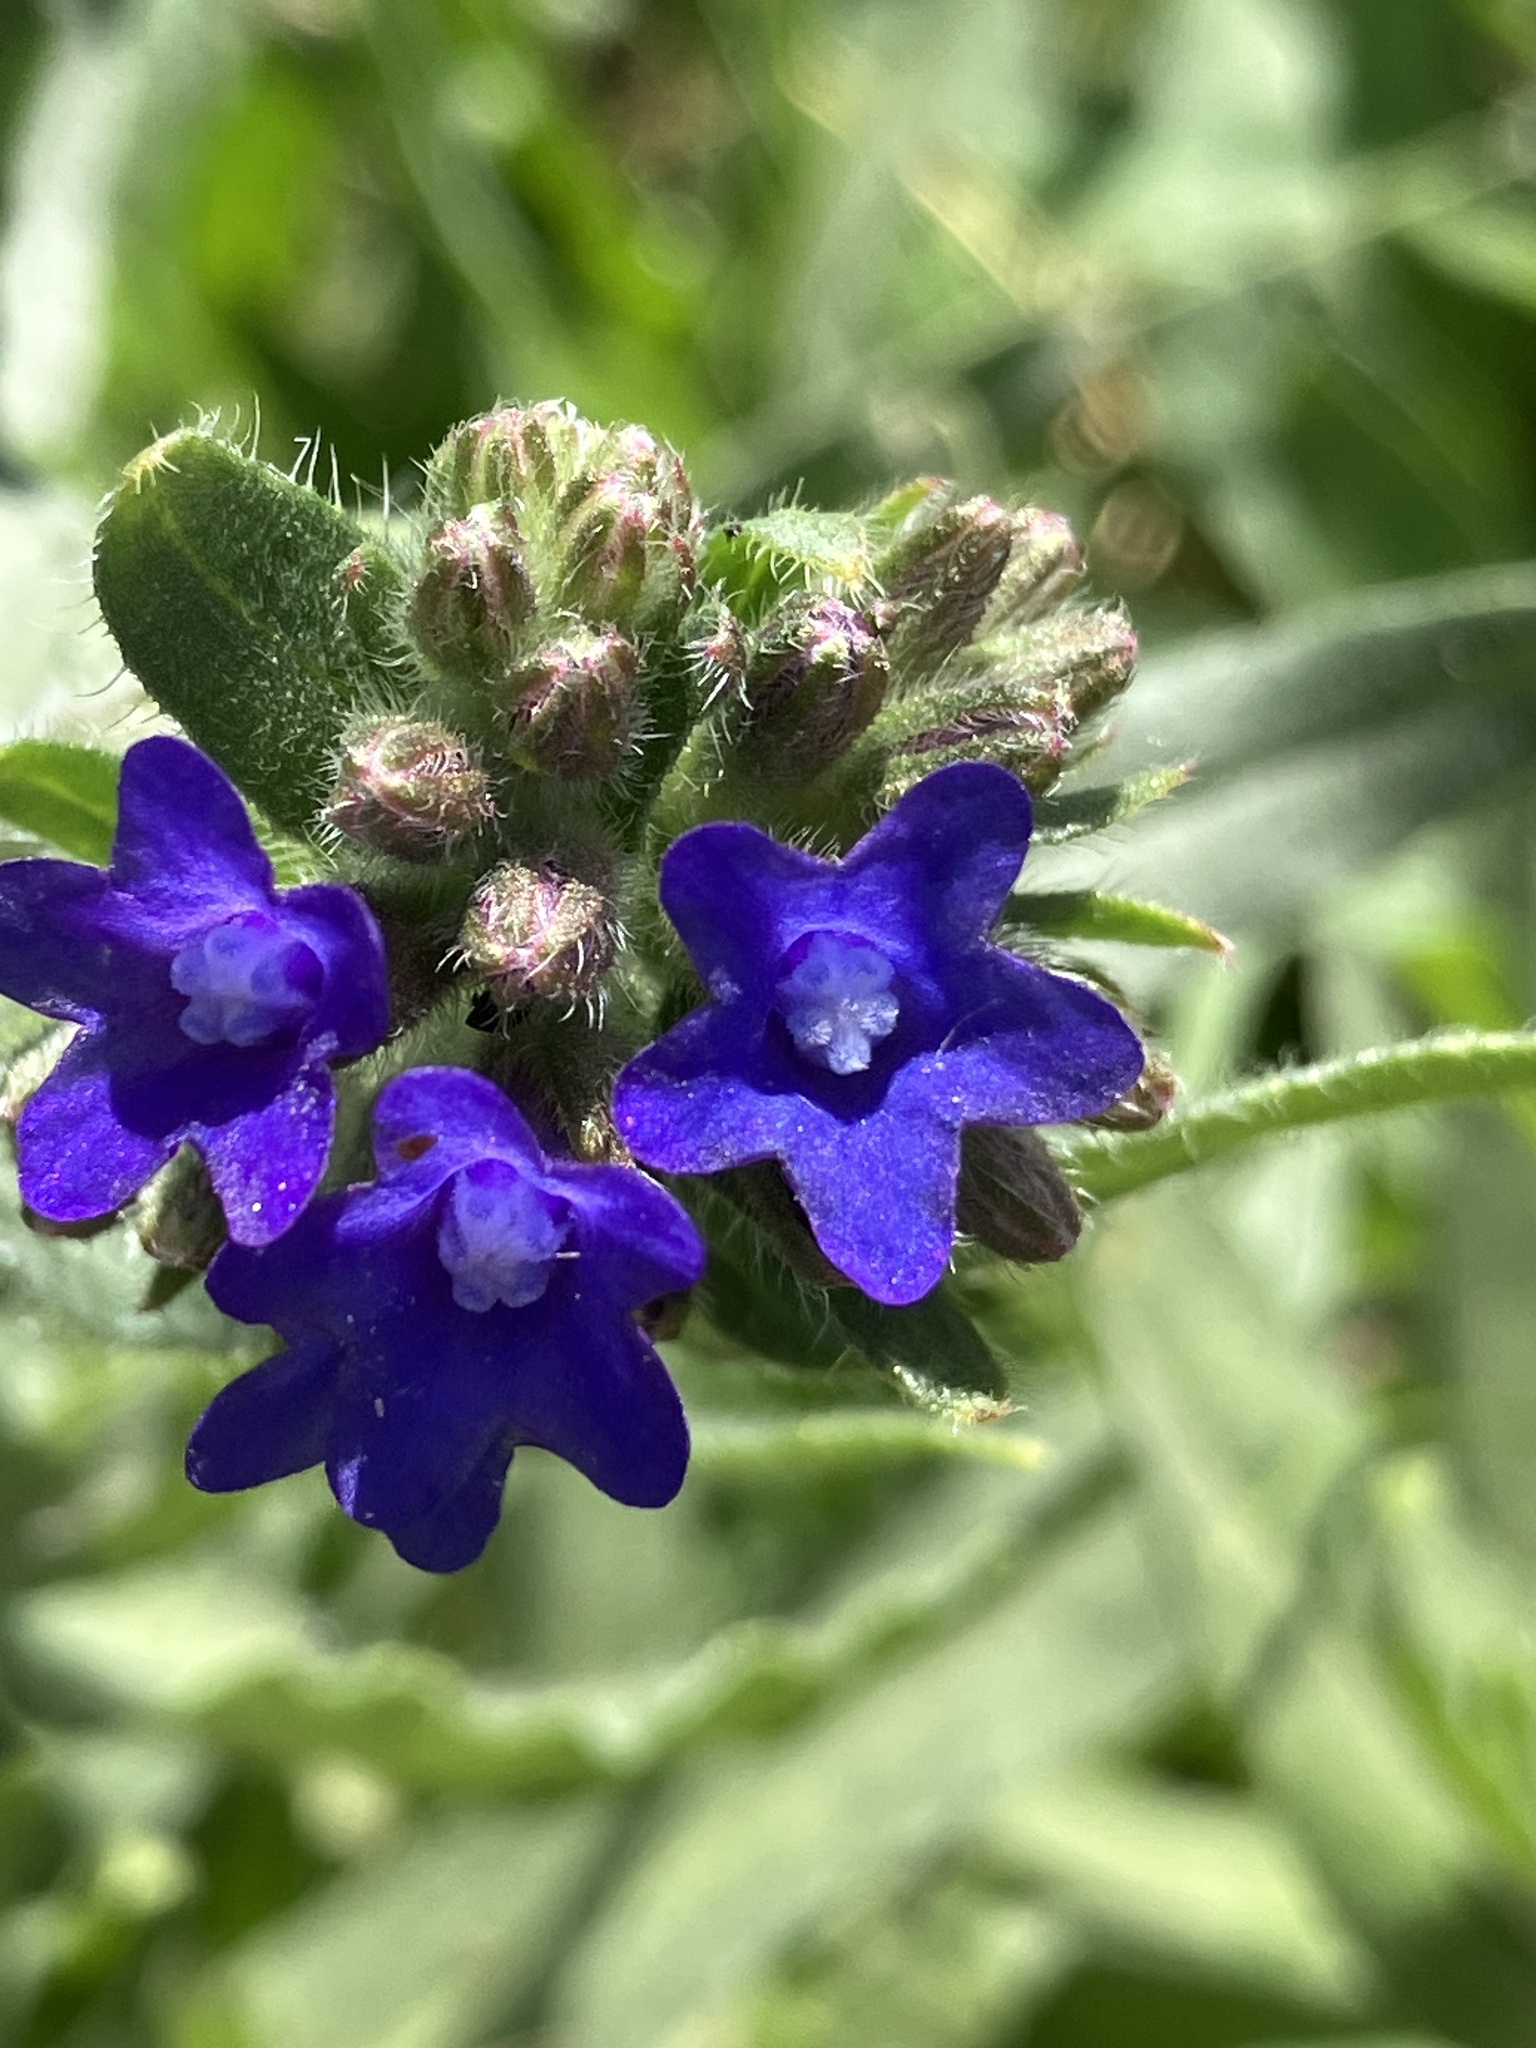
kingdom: Plantae
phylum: Tracheophyta
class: Magnoliopsida
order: Boraginales
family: Boraginaceae
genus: Anchusa
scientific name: Anchusa officinalis
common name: Alkanet
